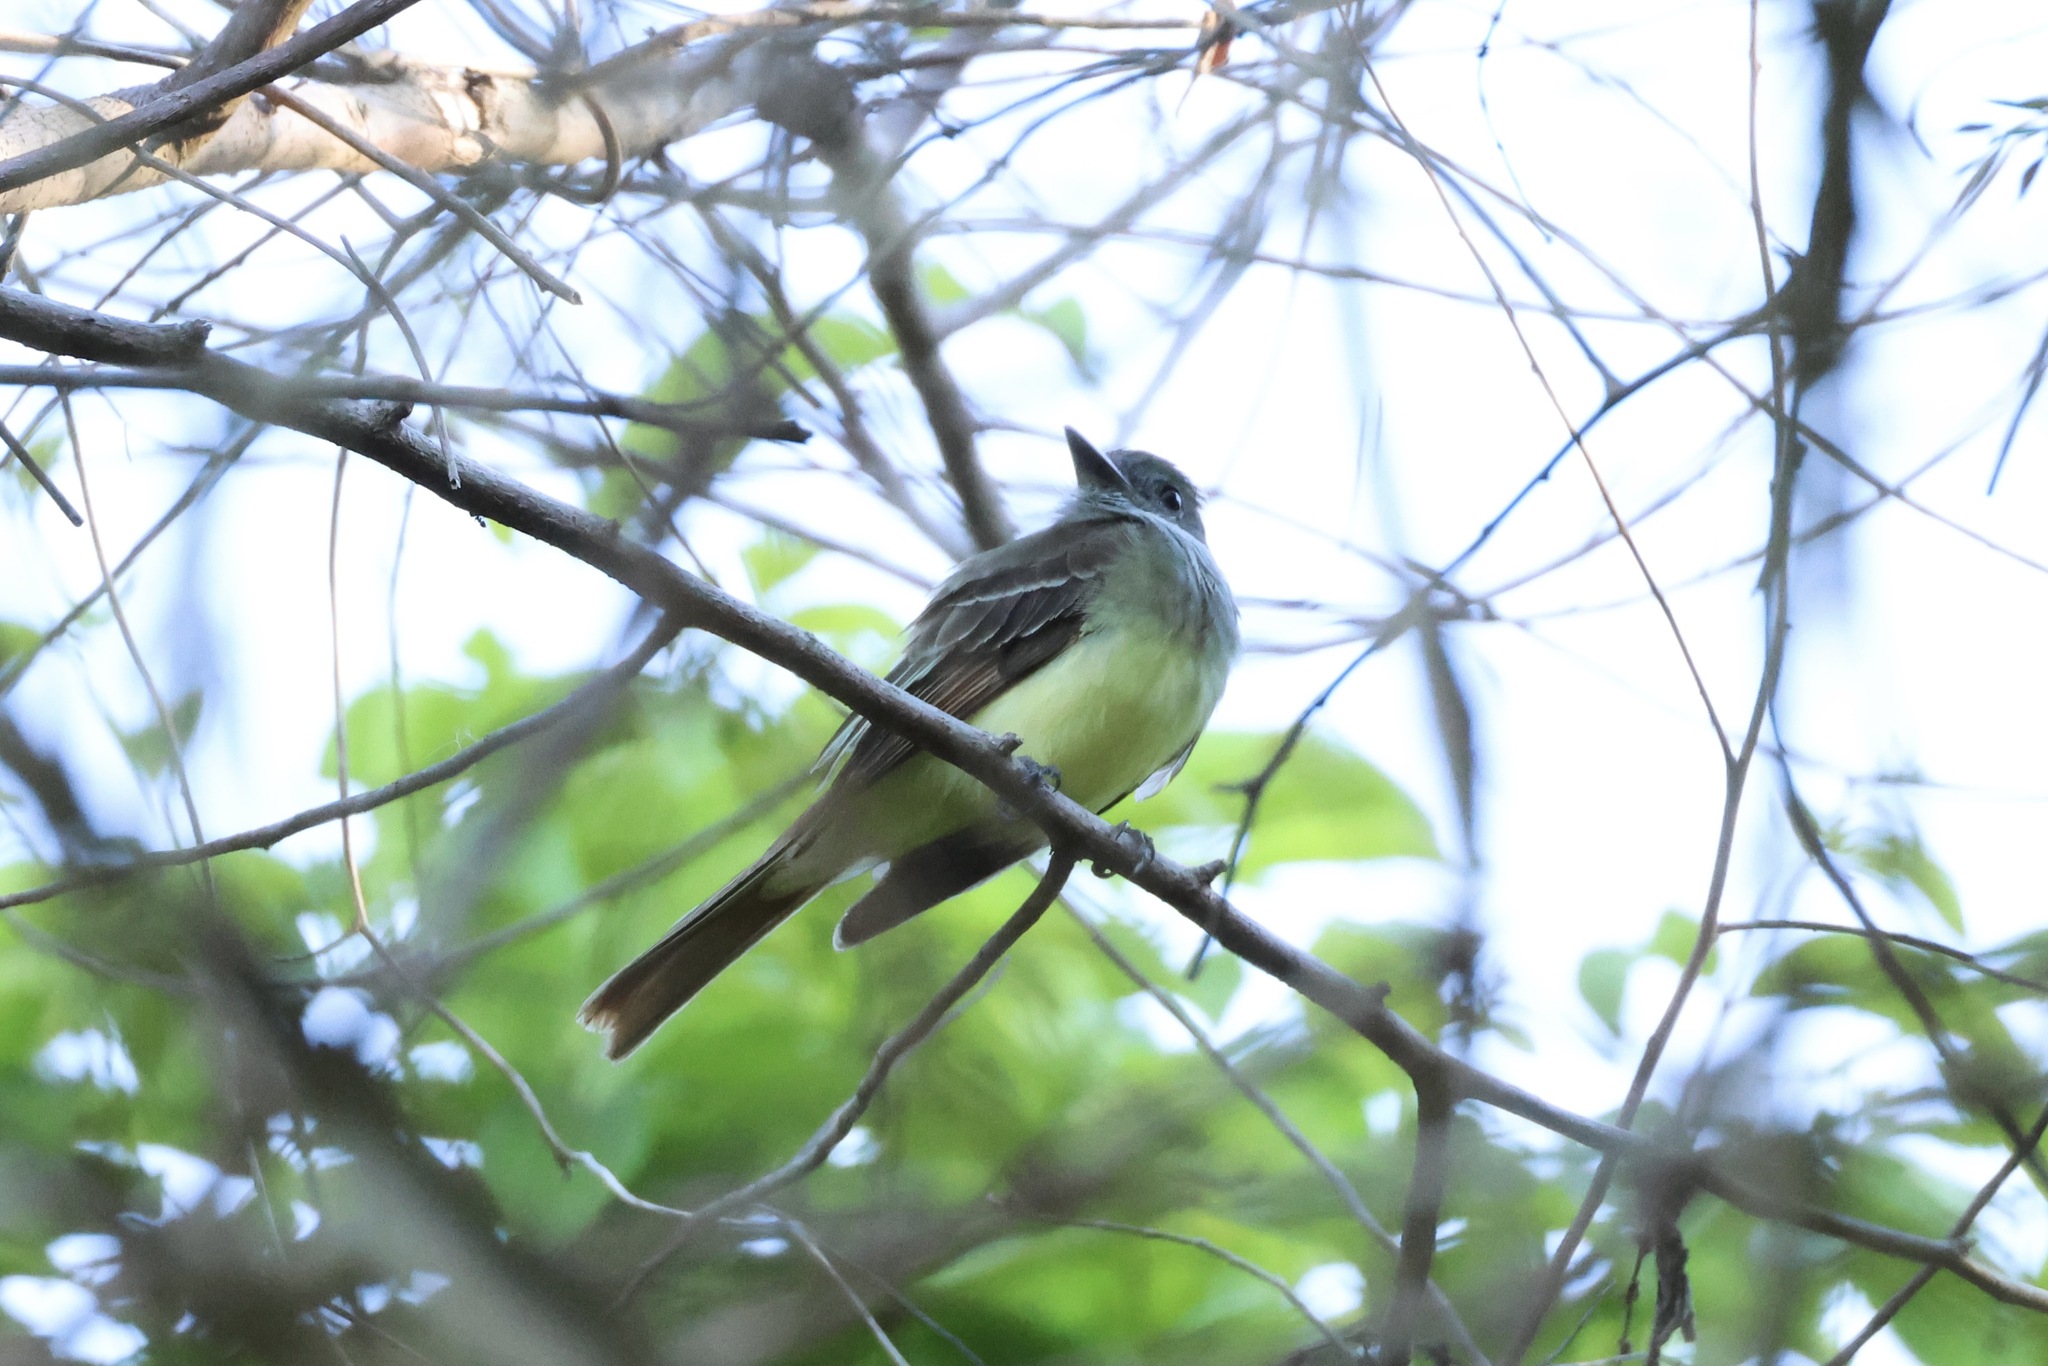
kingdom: Animalia
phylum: Chordata
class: Aves
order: Passeriformes
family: Tyrannidae
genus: Myiarchus
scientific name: Myiarchus crinitus
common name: Great crested flycatcher
